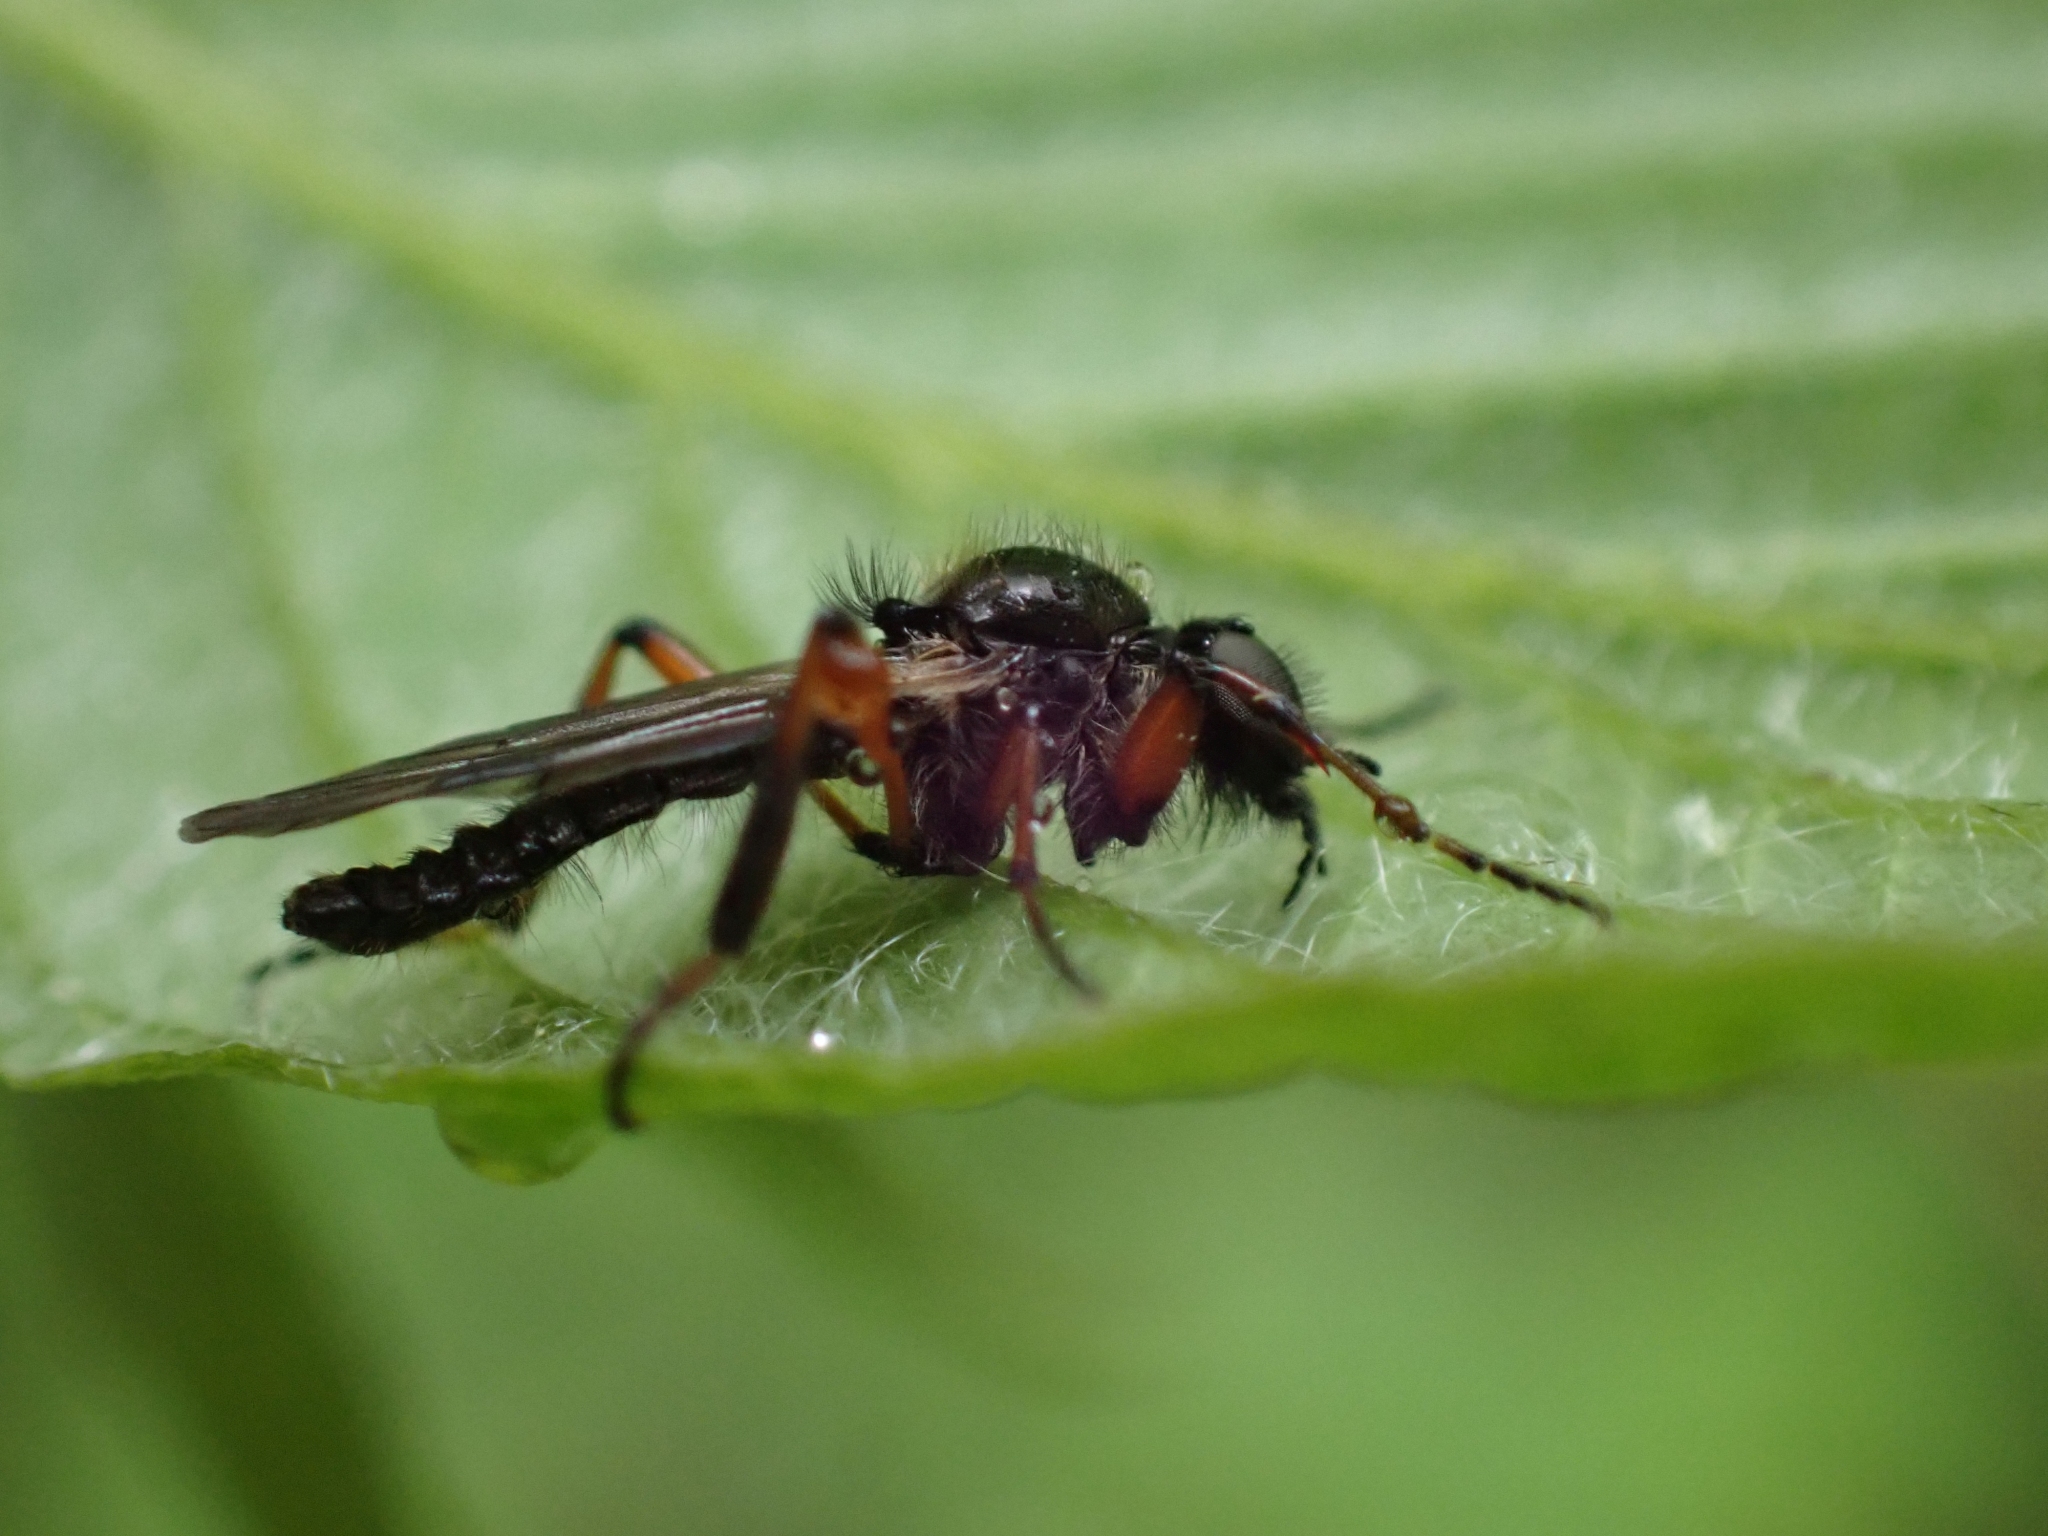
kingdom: Animalia
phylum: Arthropoda
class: Insecta
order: Diptera
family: Bibionidae
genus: Bibio
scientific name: Bibio xanthopus
